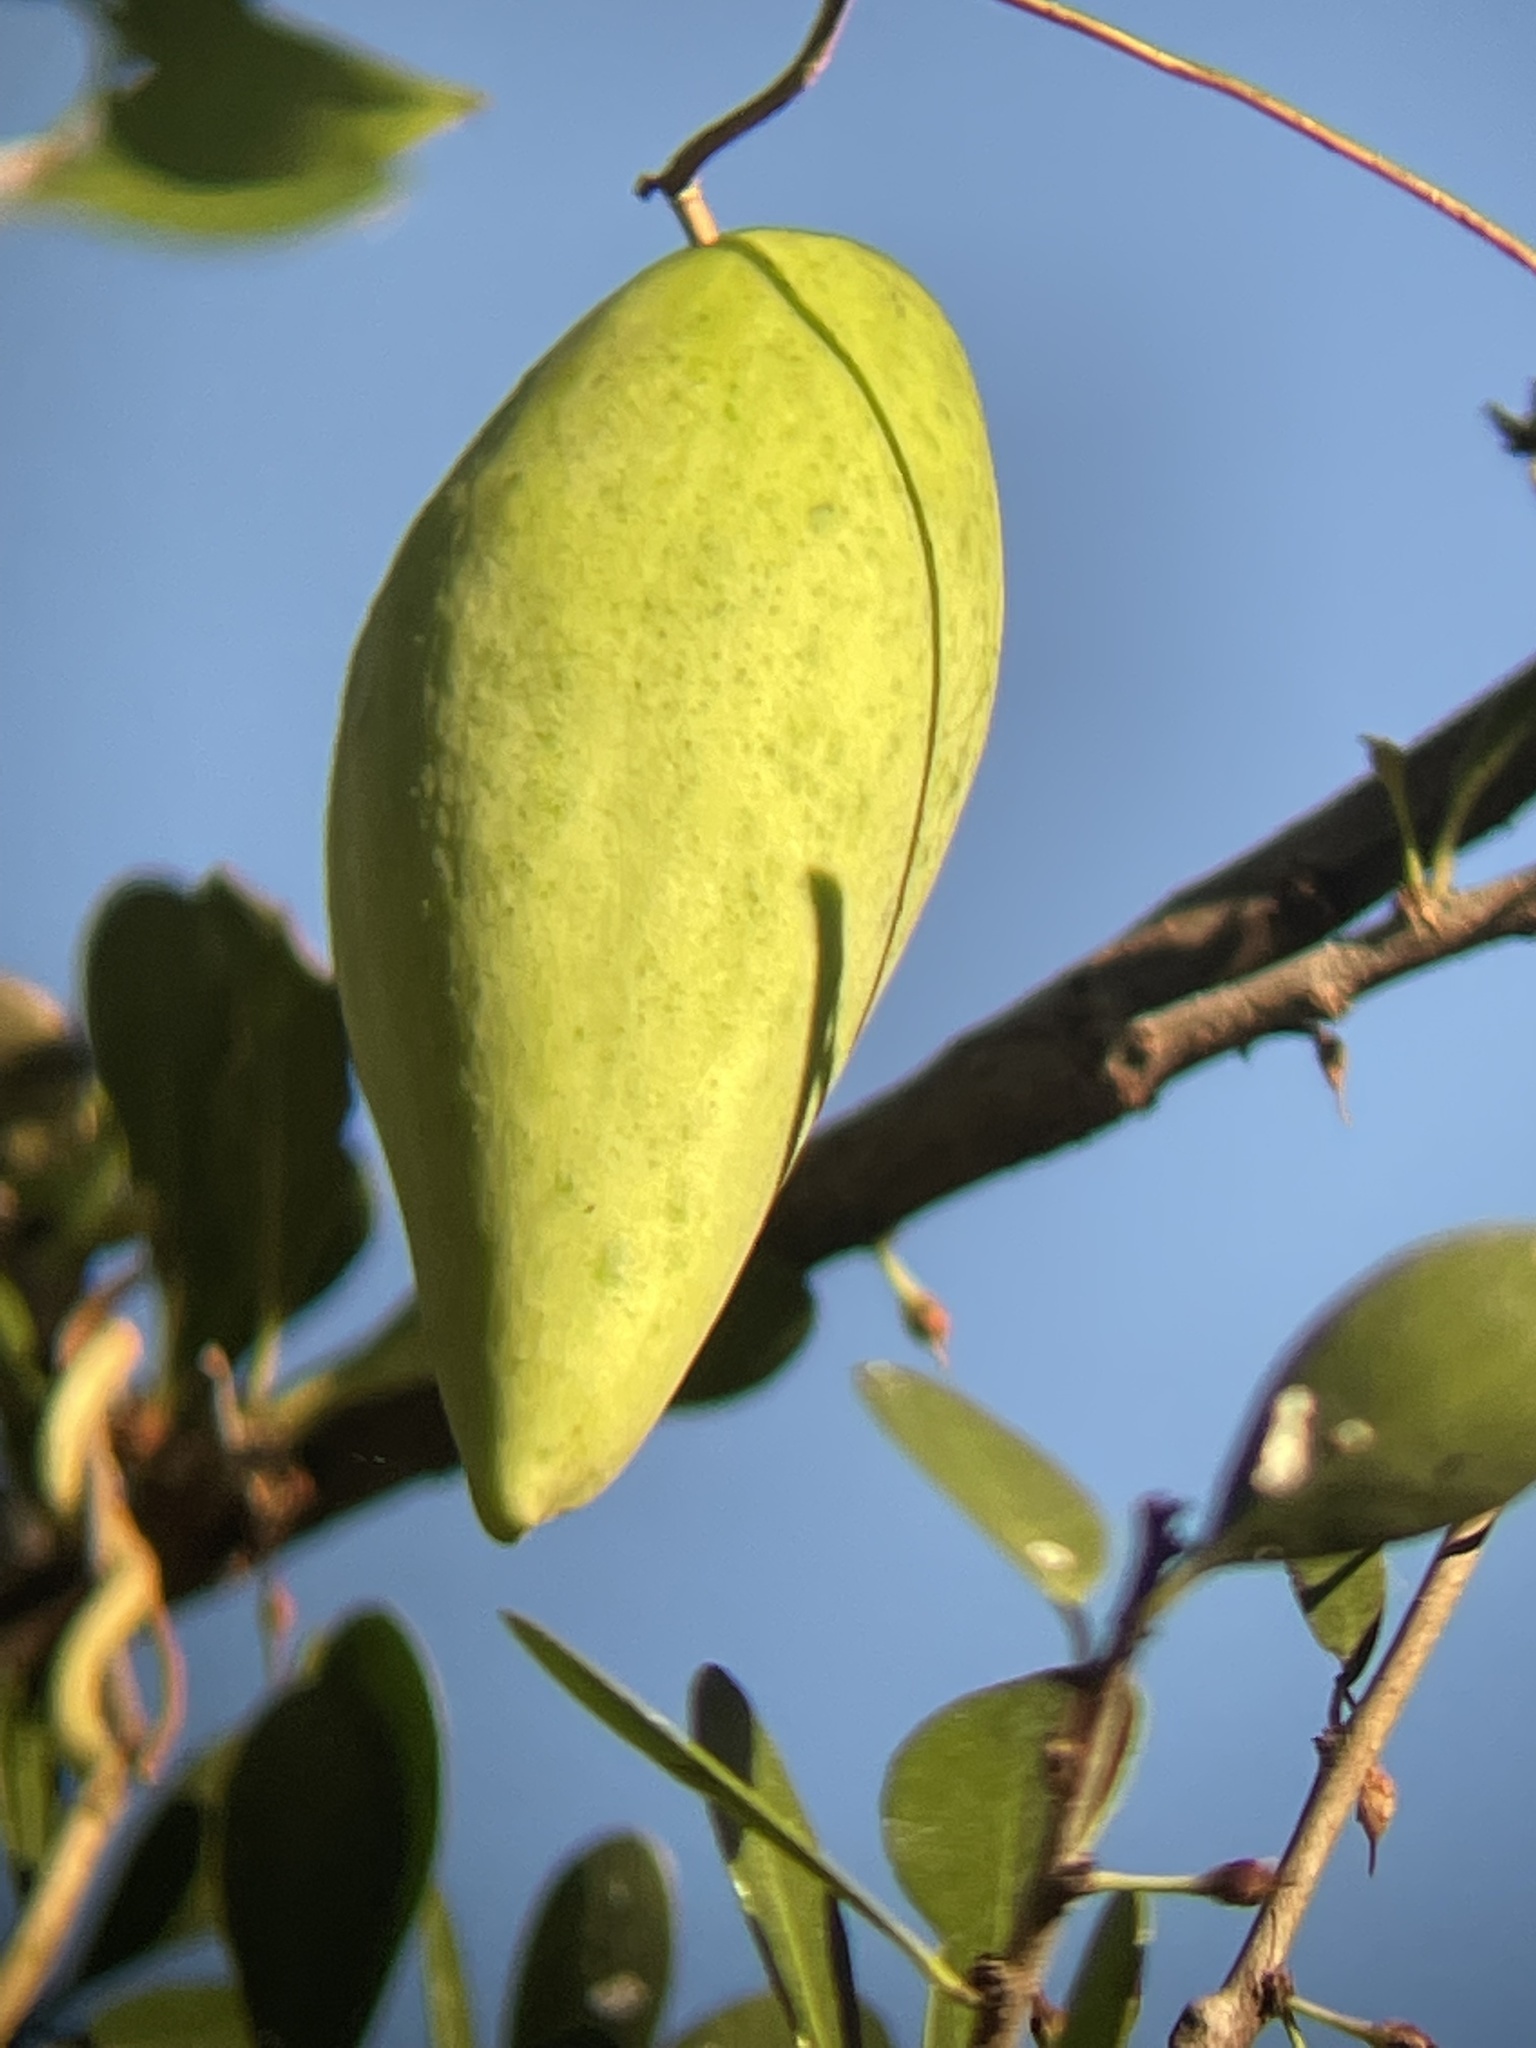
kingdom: Plantae
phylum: Tracheophyta
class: Magnoliopsida
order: Gentianales
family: Apocynaceae
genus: Cynanchum
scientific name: Cynanchum racemosum
